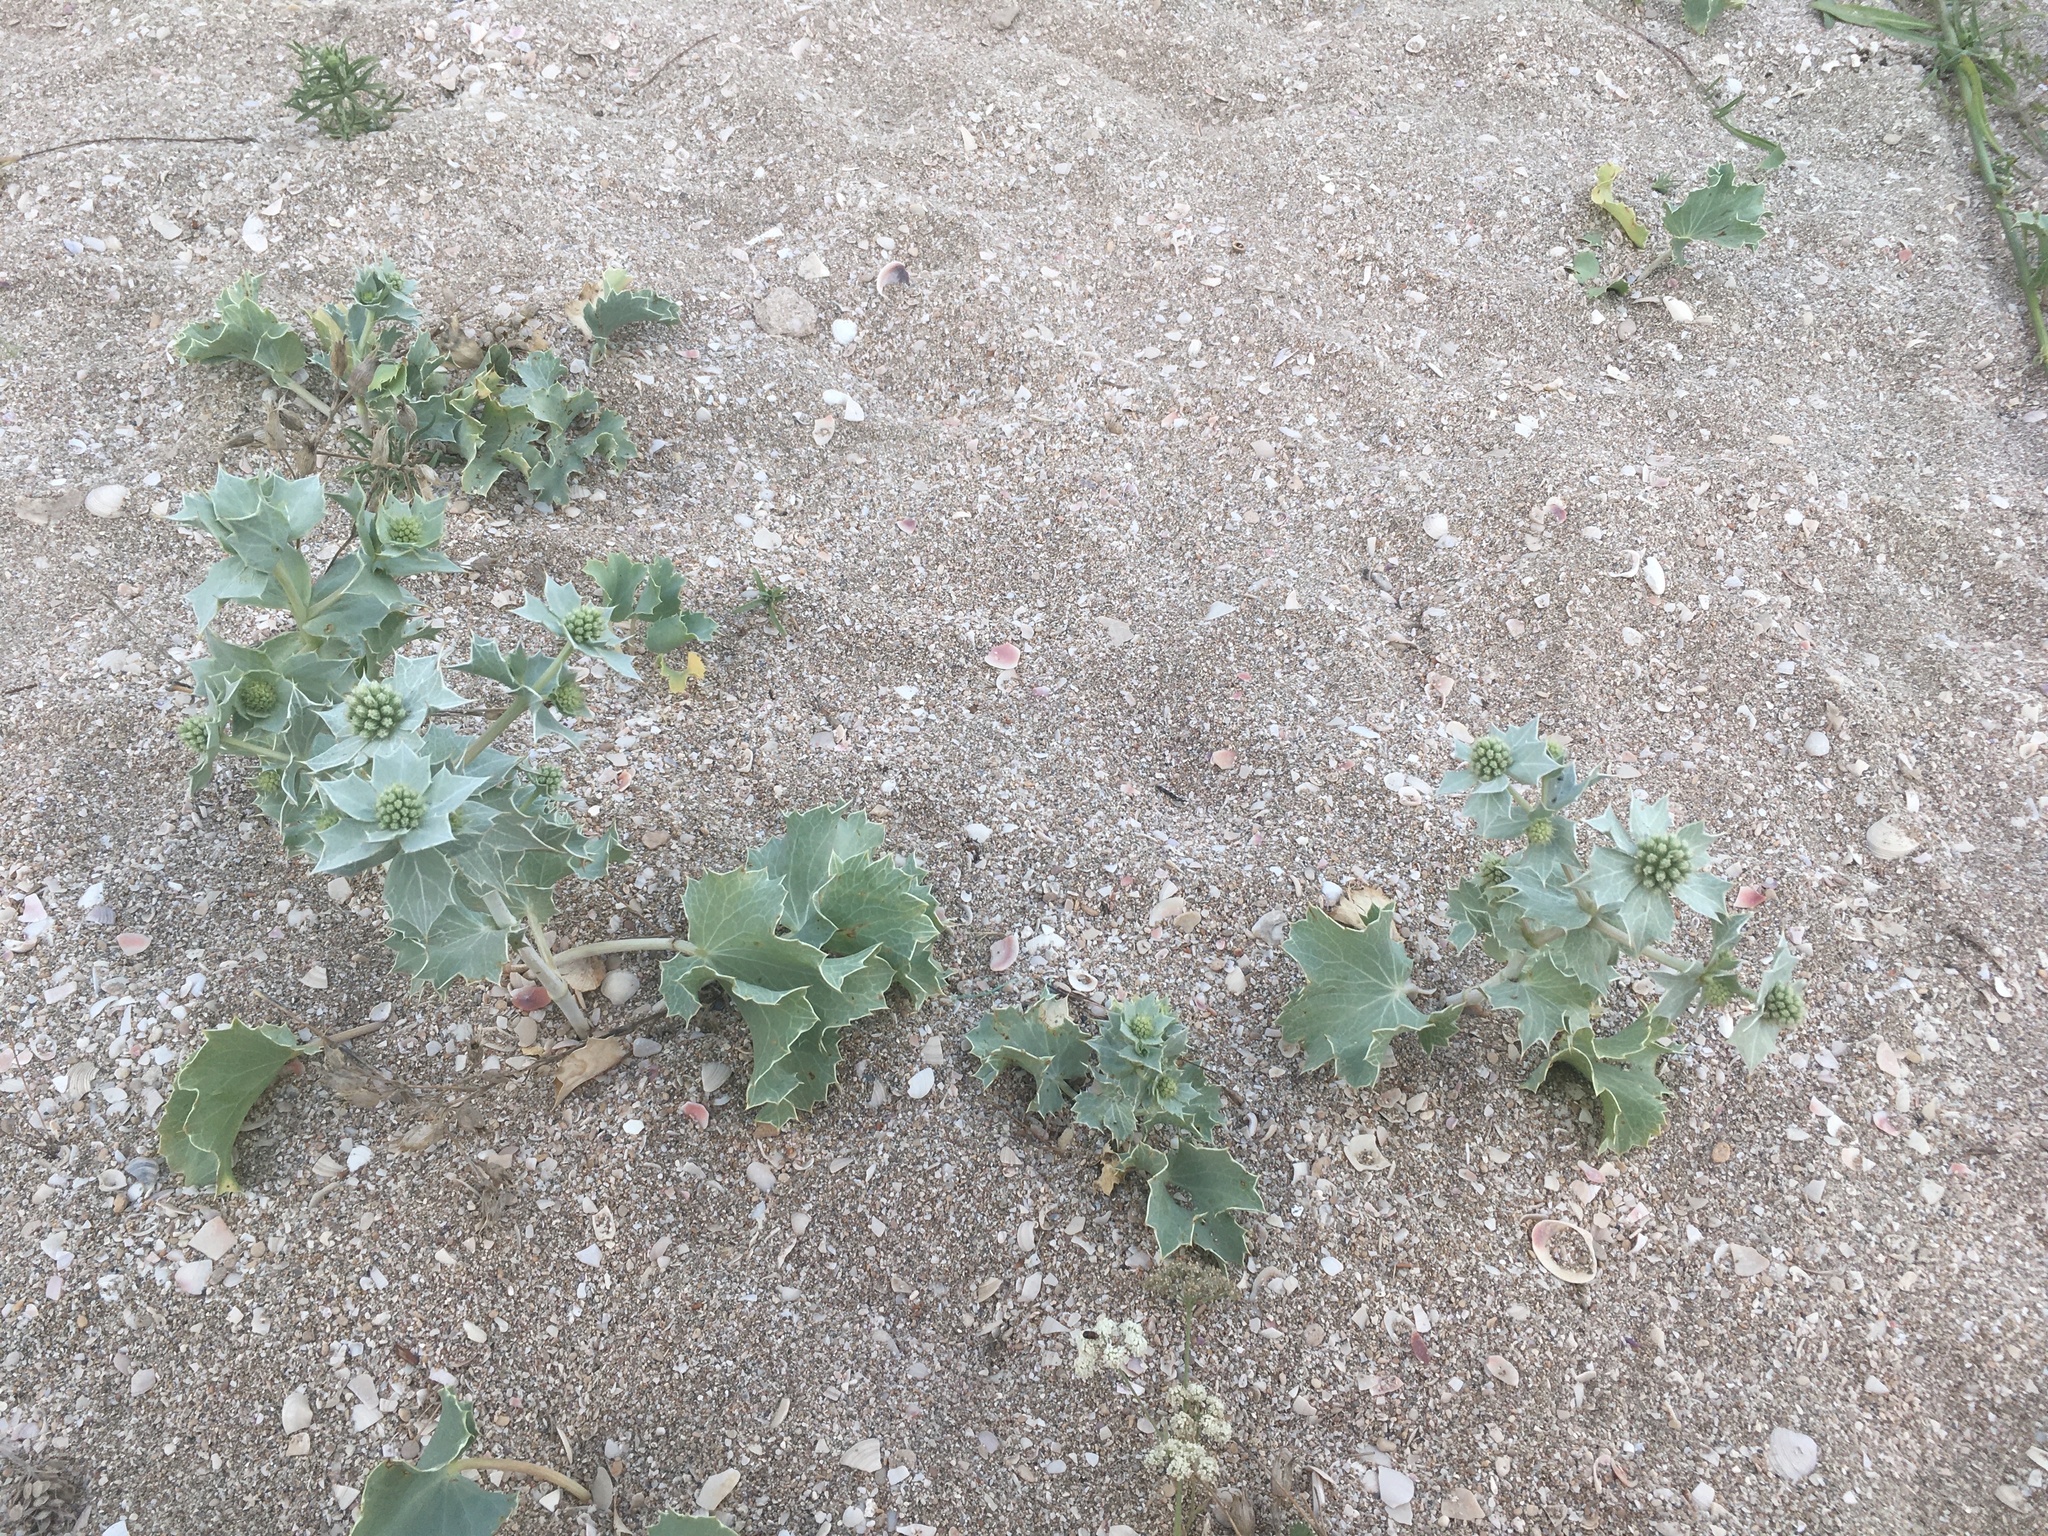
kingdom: Plantae
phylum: Tracheophyta
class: Magnoliopsida
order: Apiales
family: Apiaceae
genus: Eryngium
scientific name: Eryngium maritimum
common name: Sea-holly
